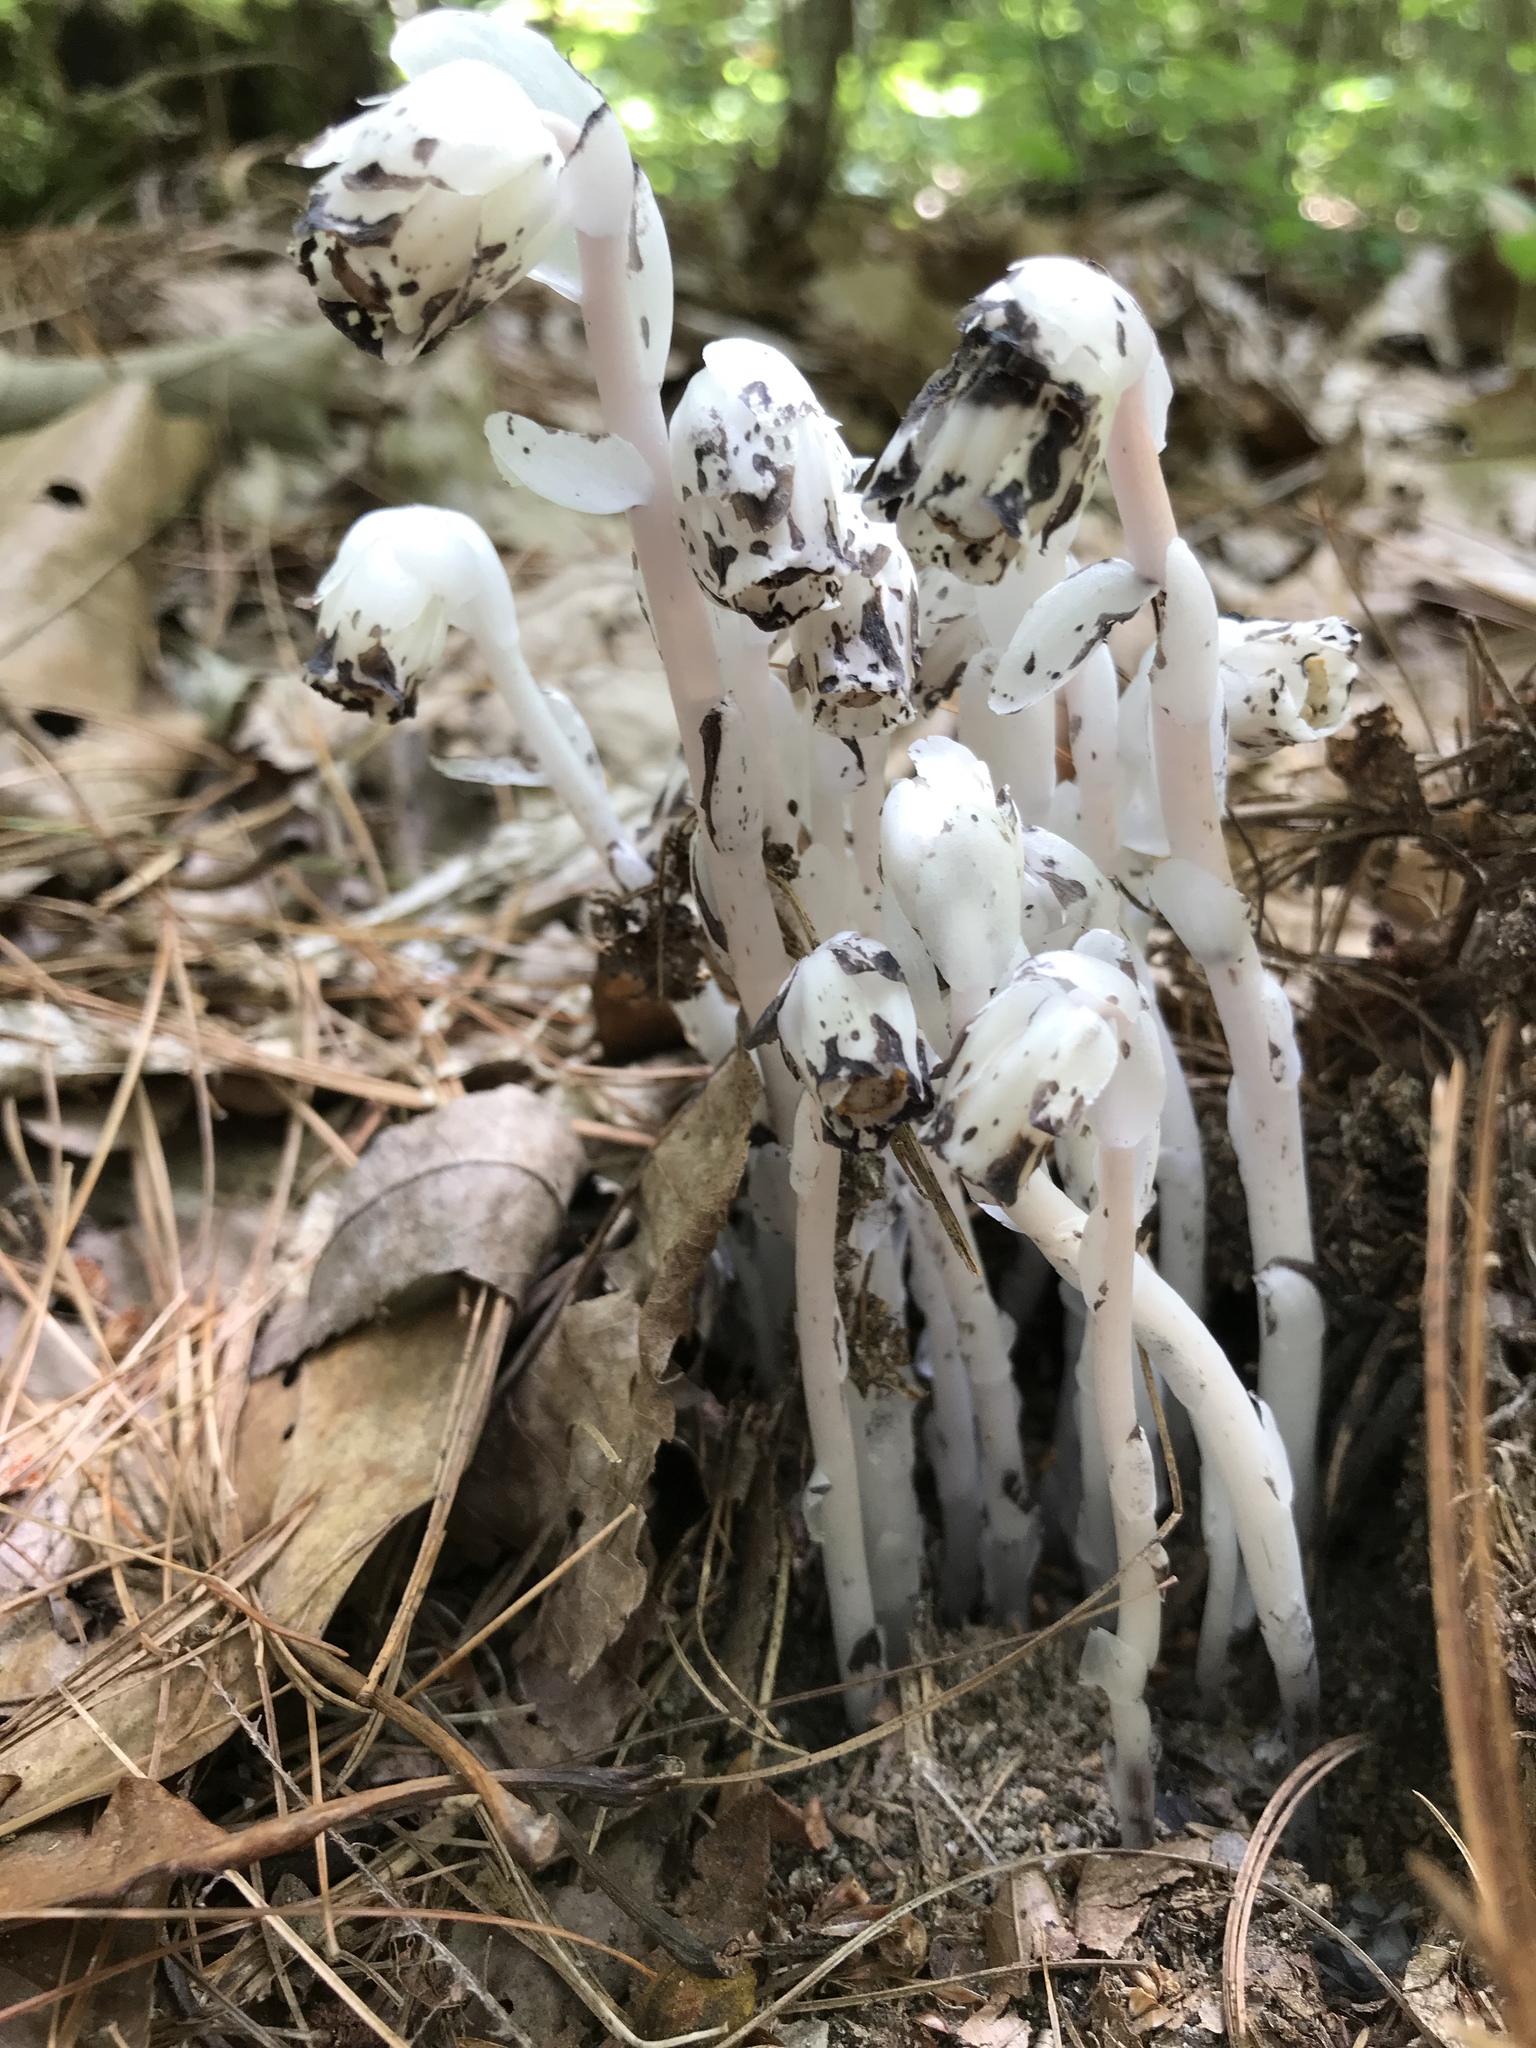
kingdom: Plantae
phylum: Tracheophyta
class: Magnoliopsida
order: Ericales
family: Ericaceae
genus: Monotropa
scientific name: Monotropa uniflora
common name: Convulsion root
